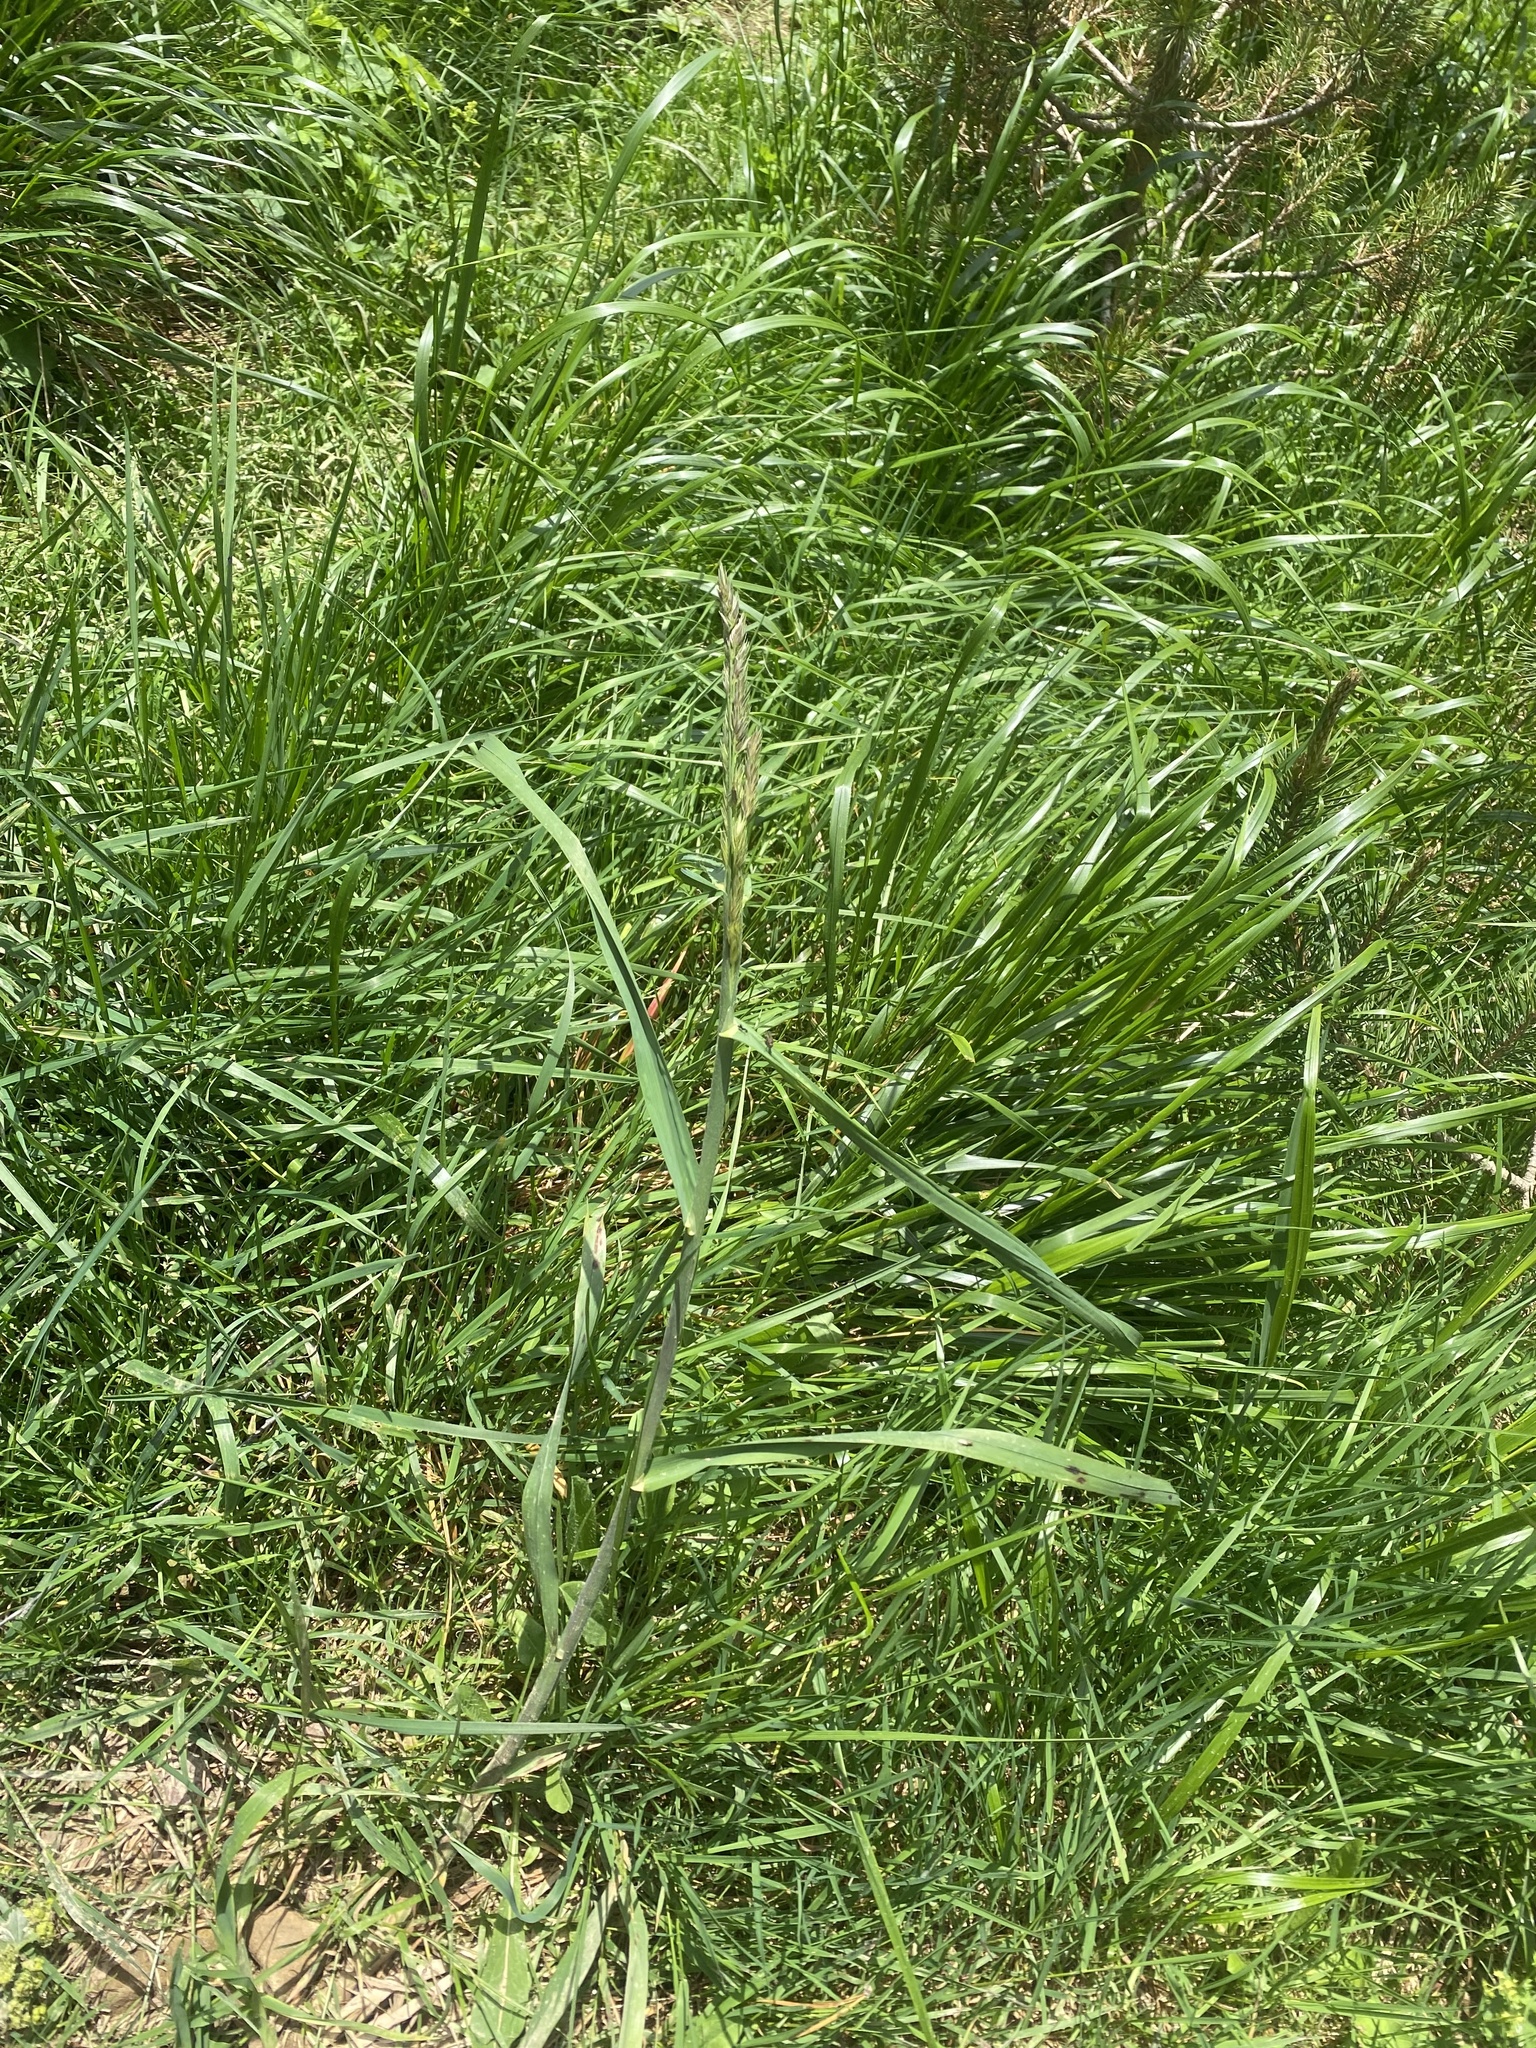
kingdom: Plantae
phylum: Tracheophyta
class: Liliopsida
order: Poales
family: Poaceae
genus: Dactylis
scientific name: Dactylis glomerata
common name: Orchardgrass
